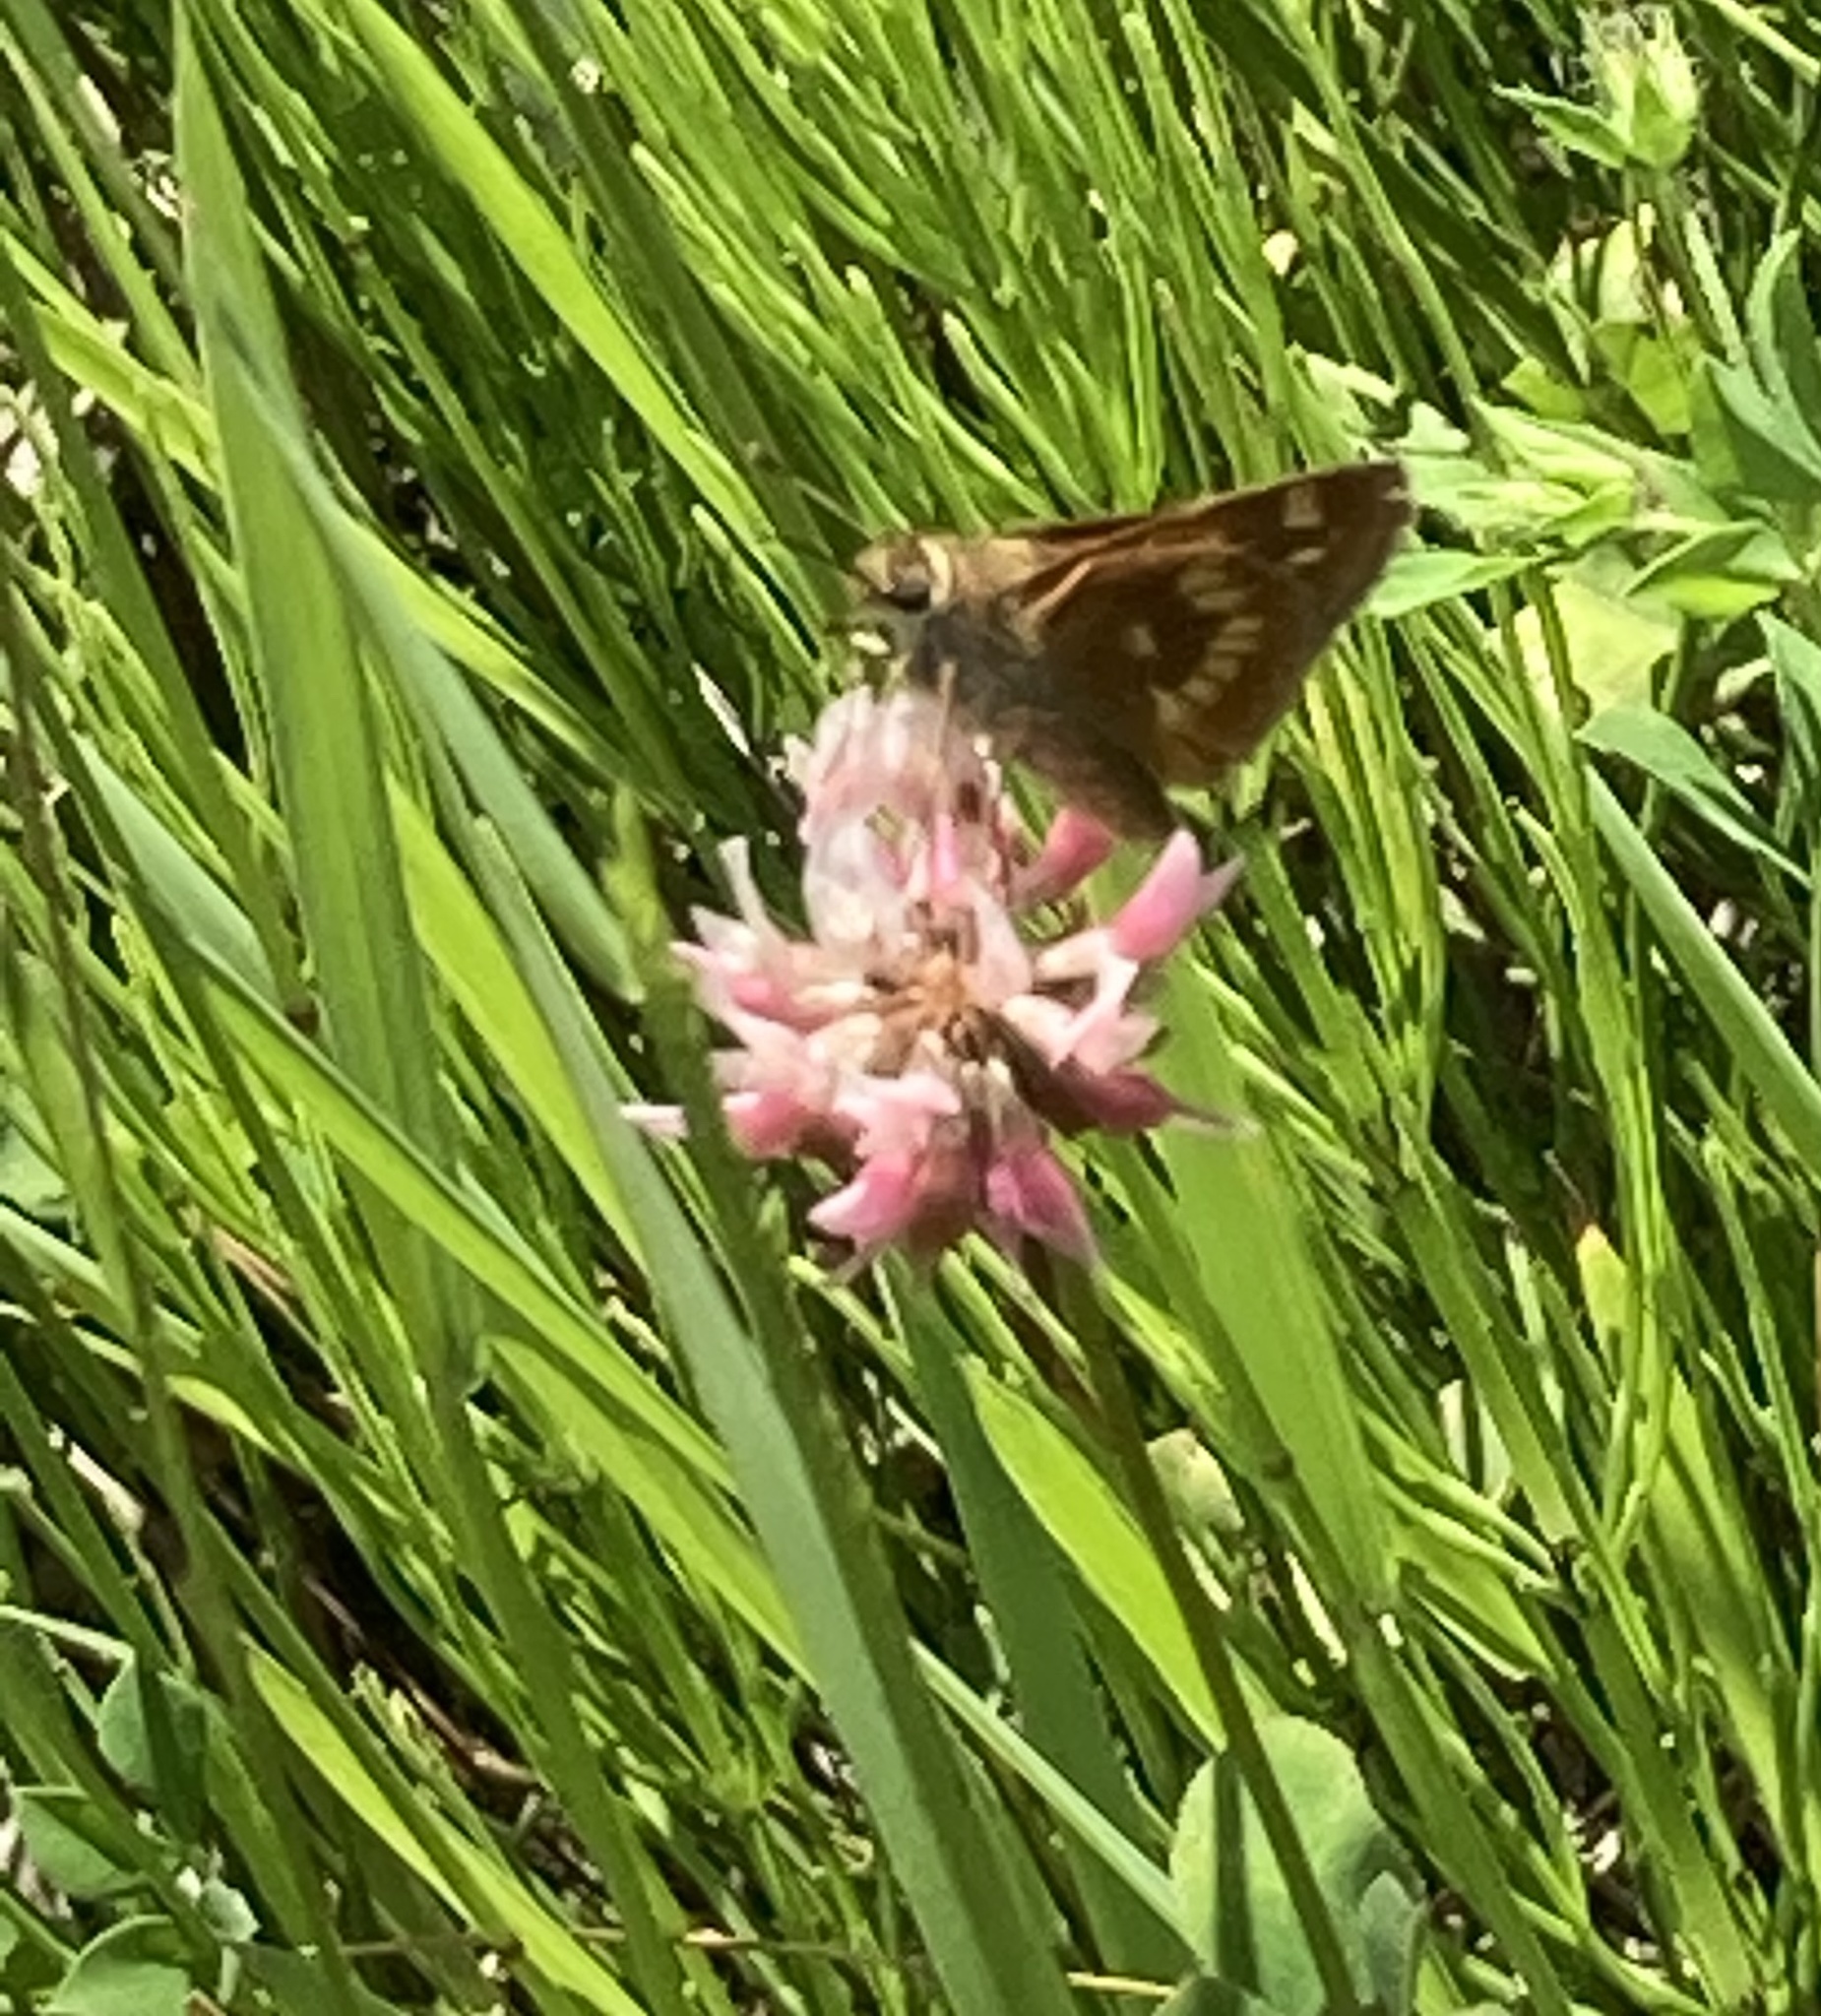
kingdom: Animalia
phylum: Arthropoda
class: Insecta
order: Lepidoptera
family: Hesperiidae
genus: Polites
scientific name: Polites mystic
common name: Long dash
